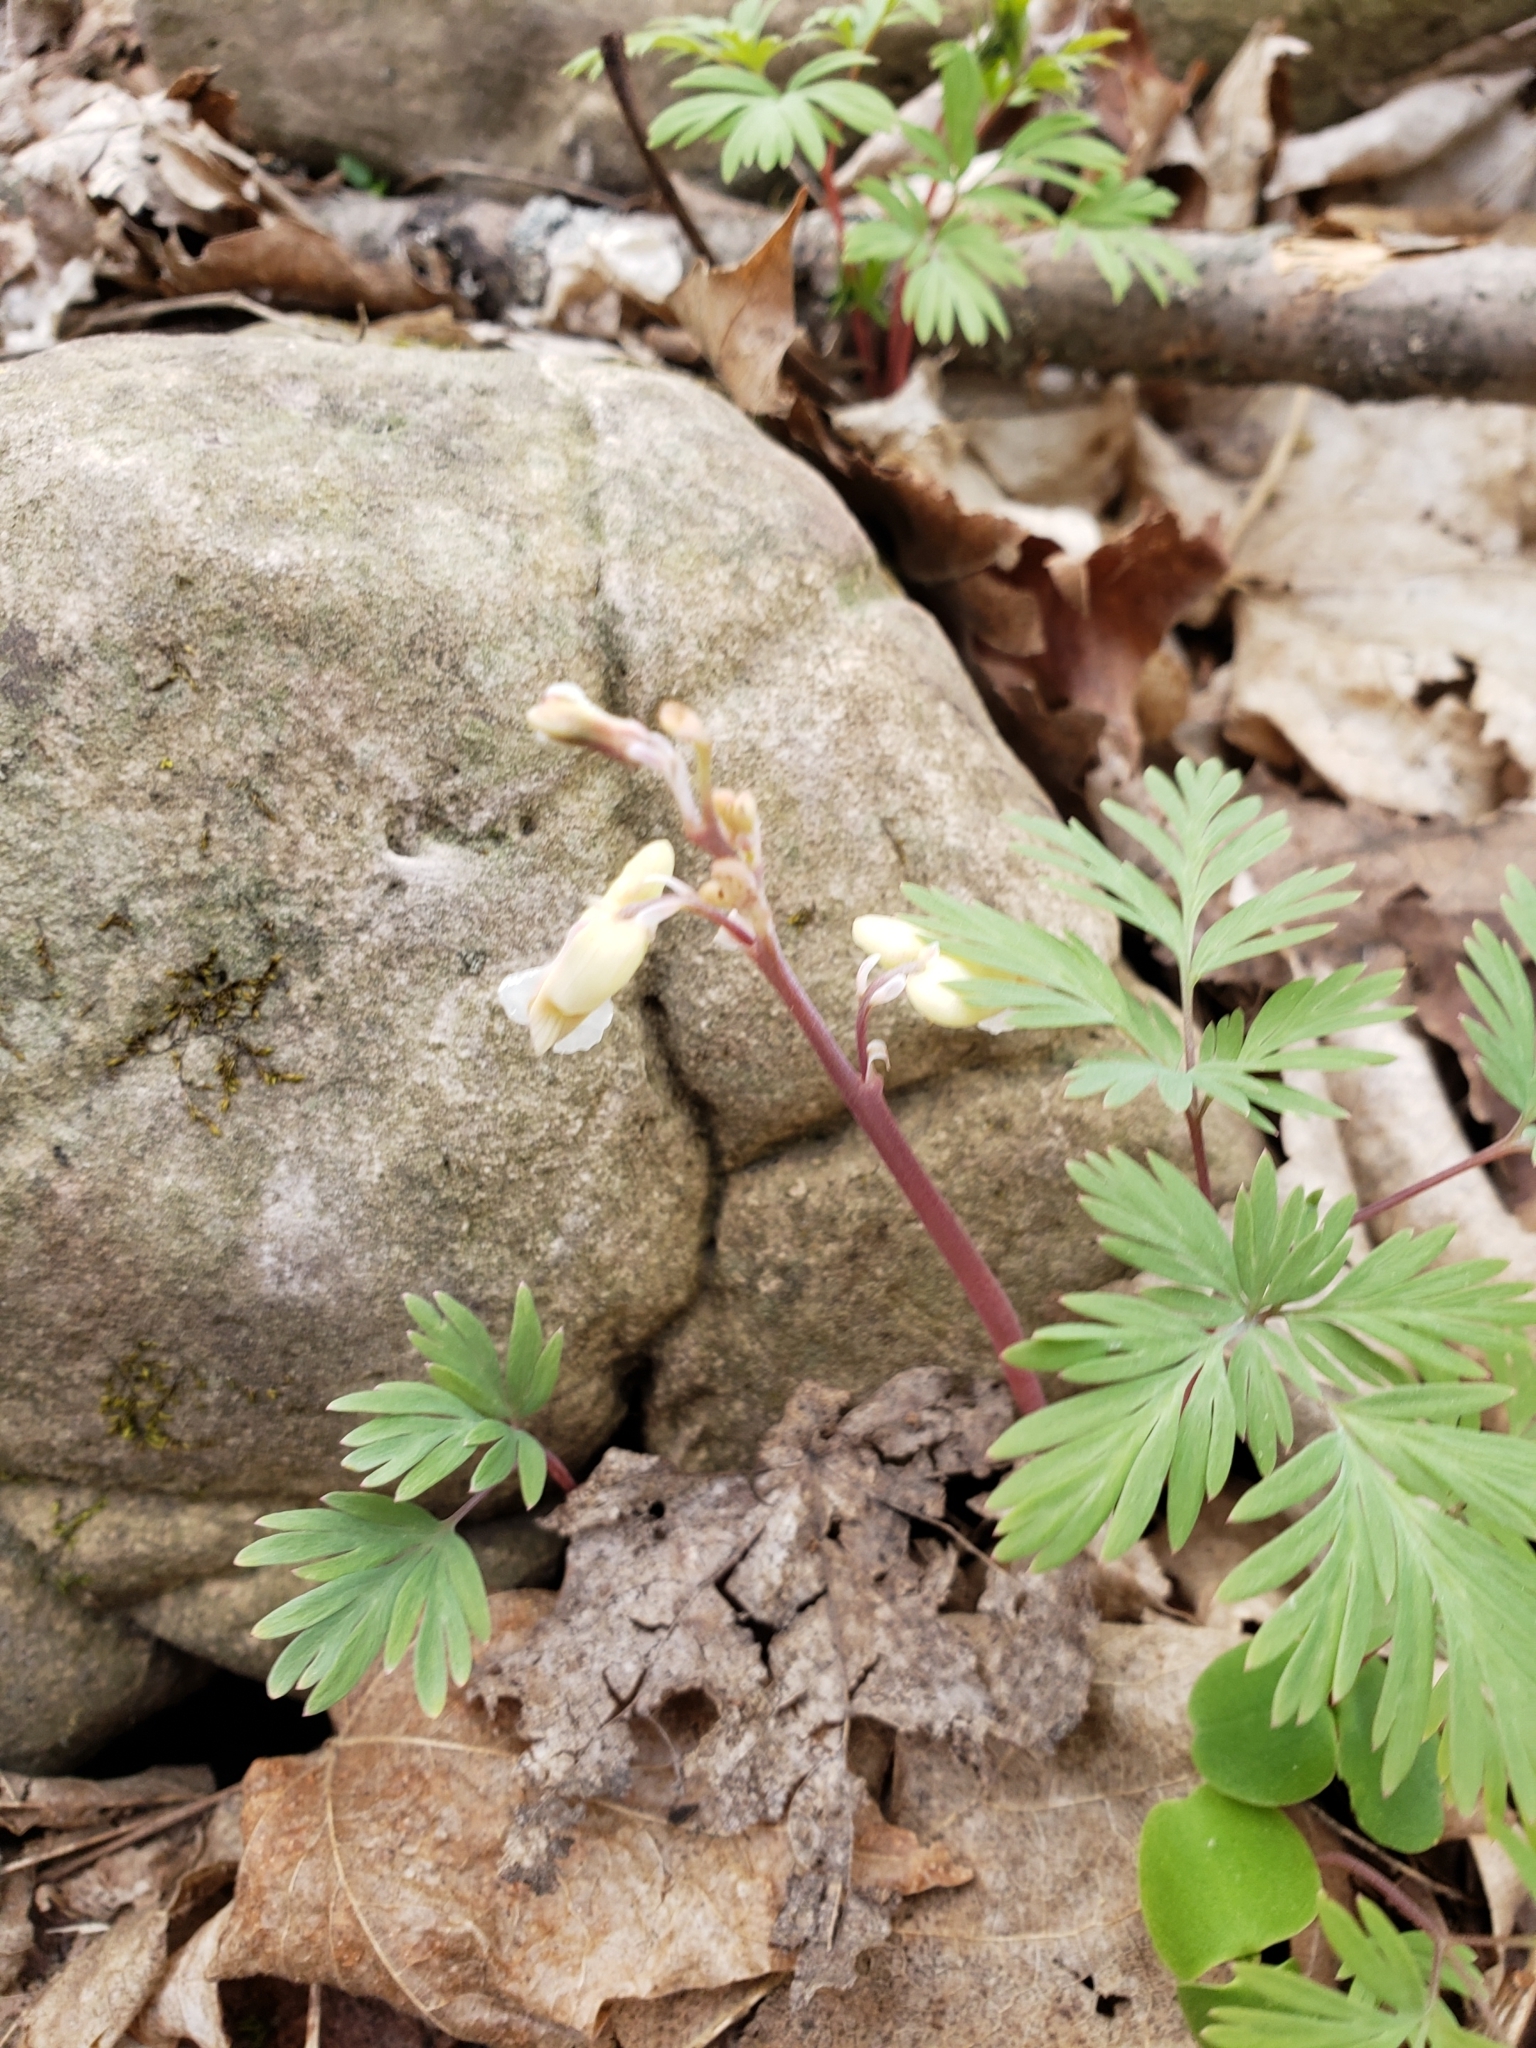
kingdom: Plantae
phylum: Tracheophyta
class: Magnoliopsida
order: Ranunculales
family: Papaveraceae
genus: Dicentra
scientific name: Dicentra canadensis
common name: Squirrel-corn
